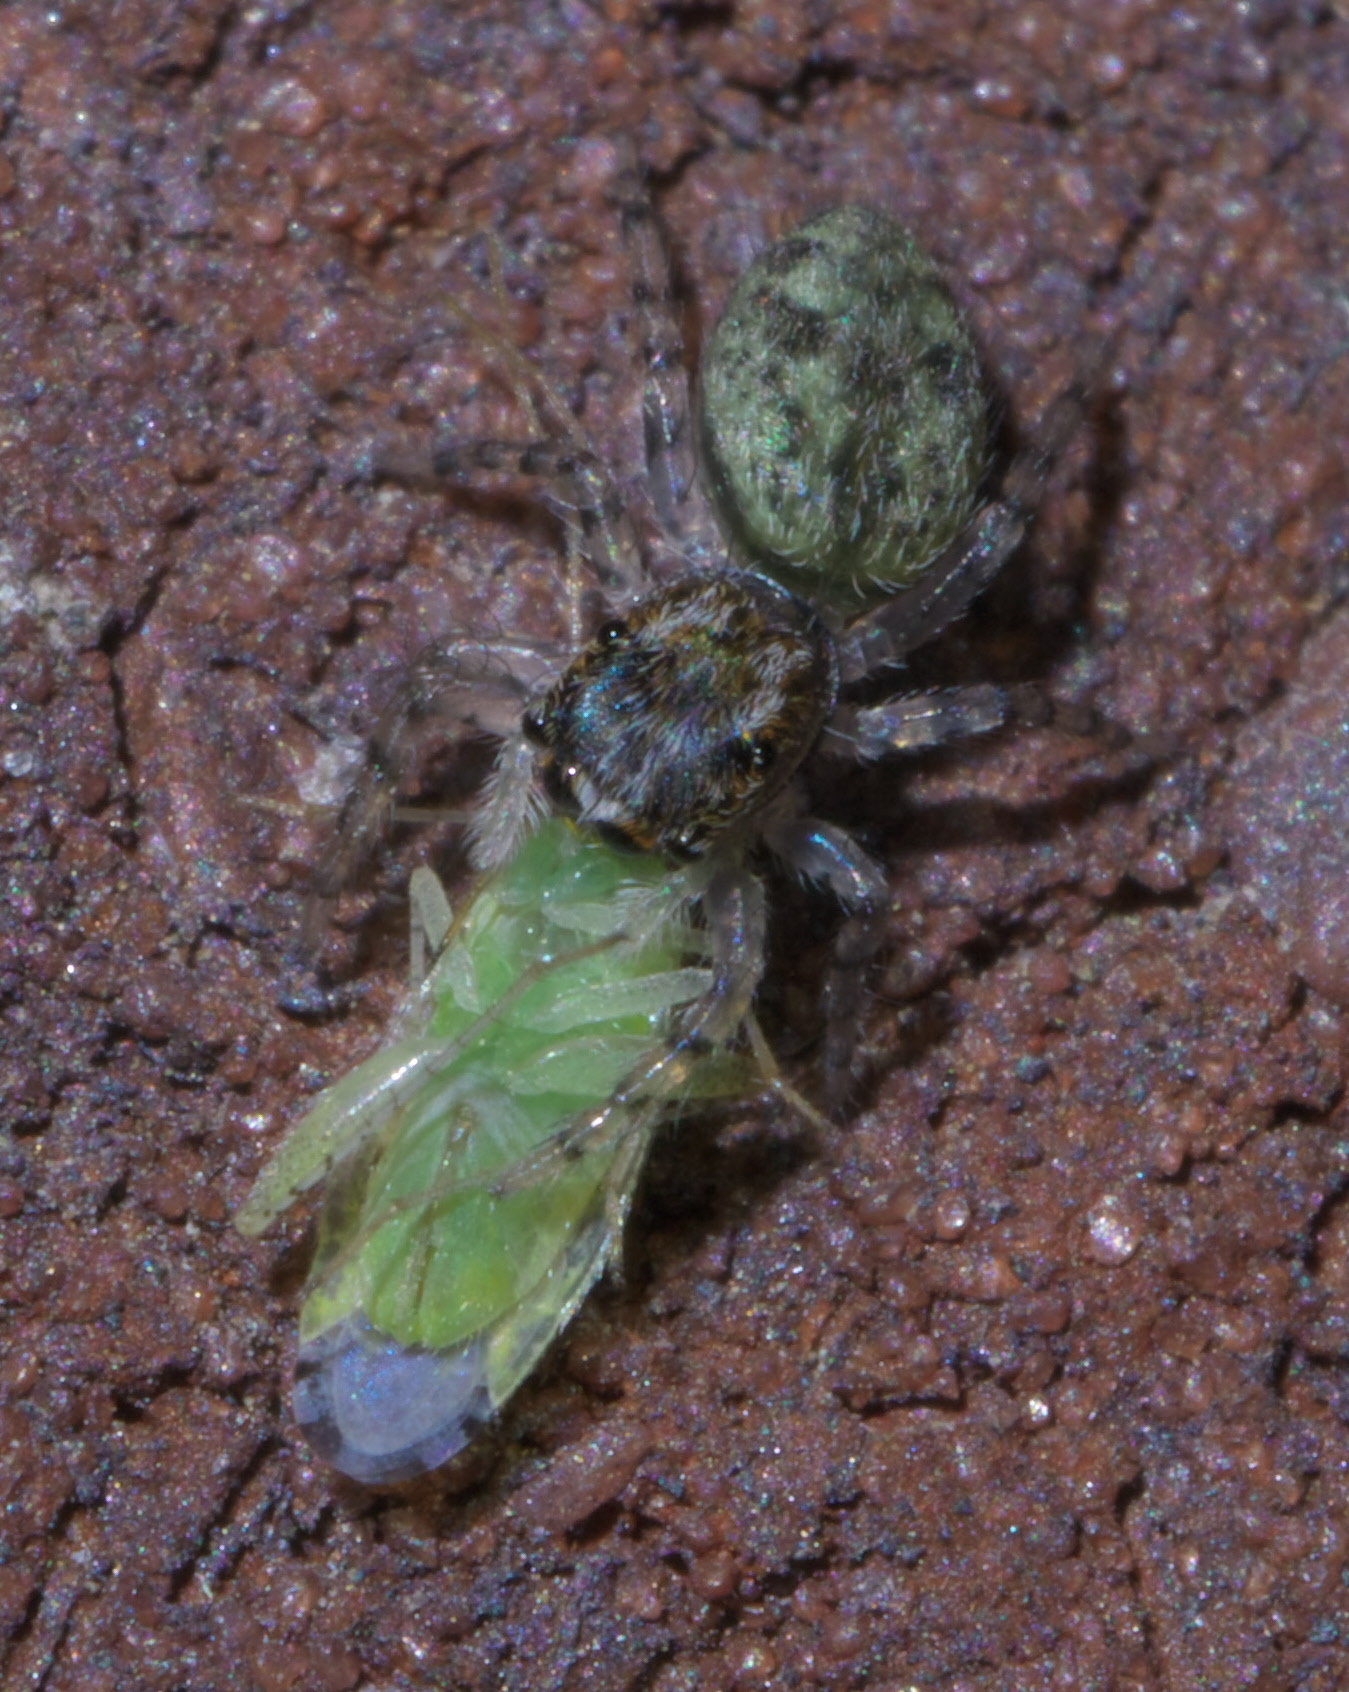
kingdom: Animalia
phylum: Arthropoda
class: Arachnida
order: Araneae
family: Salticidae
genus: Platycryptus
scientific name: Platycryptus undatus
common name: Tan jumping spider
